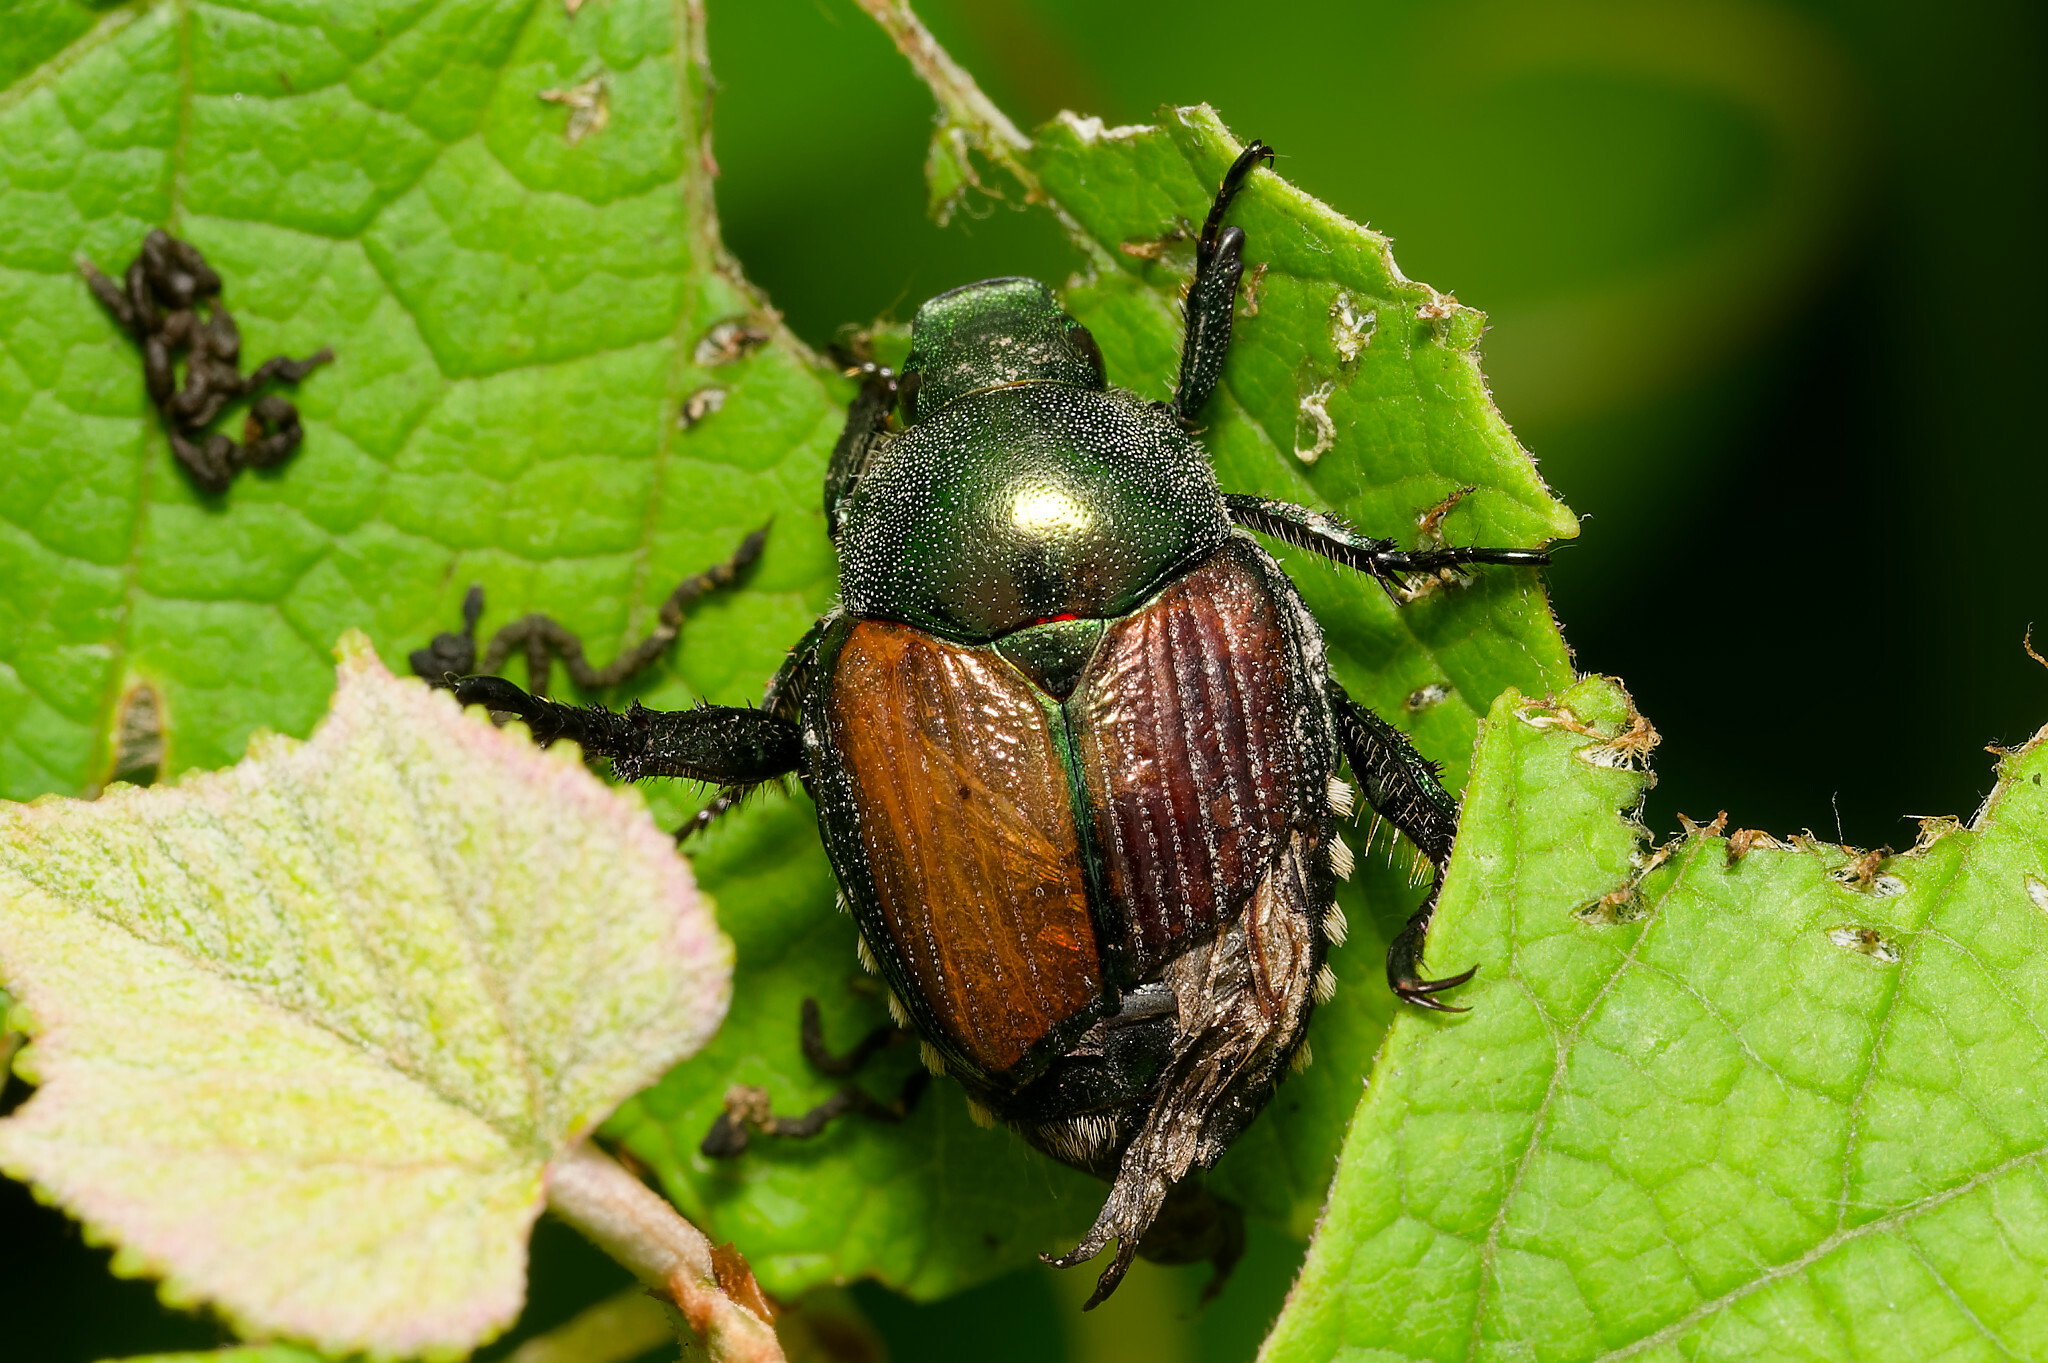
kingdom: Animalia
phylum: Arthropoda
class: Insecta
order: Coleoptera
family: Scarabaeidae
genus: Popillia
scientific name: Popillia japonica
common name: Japanese beetle
